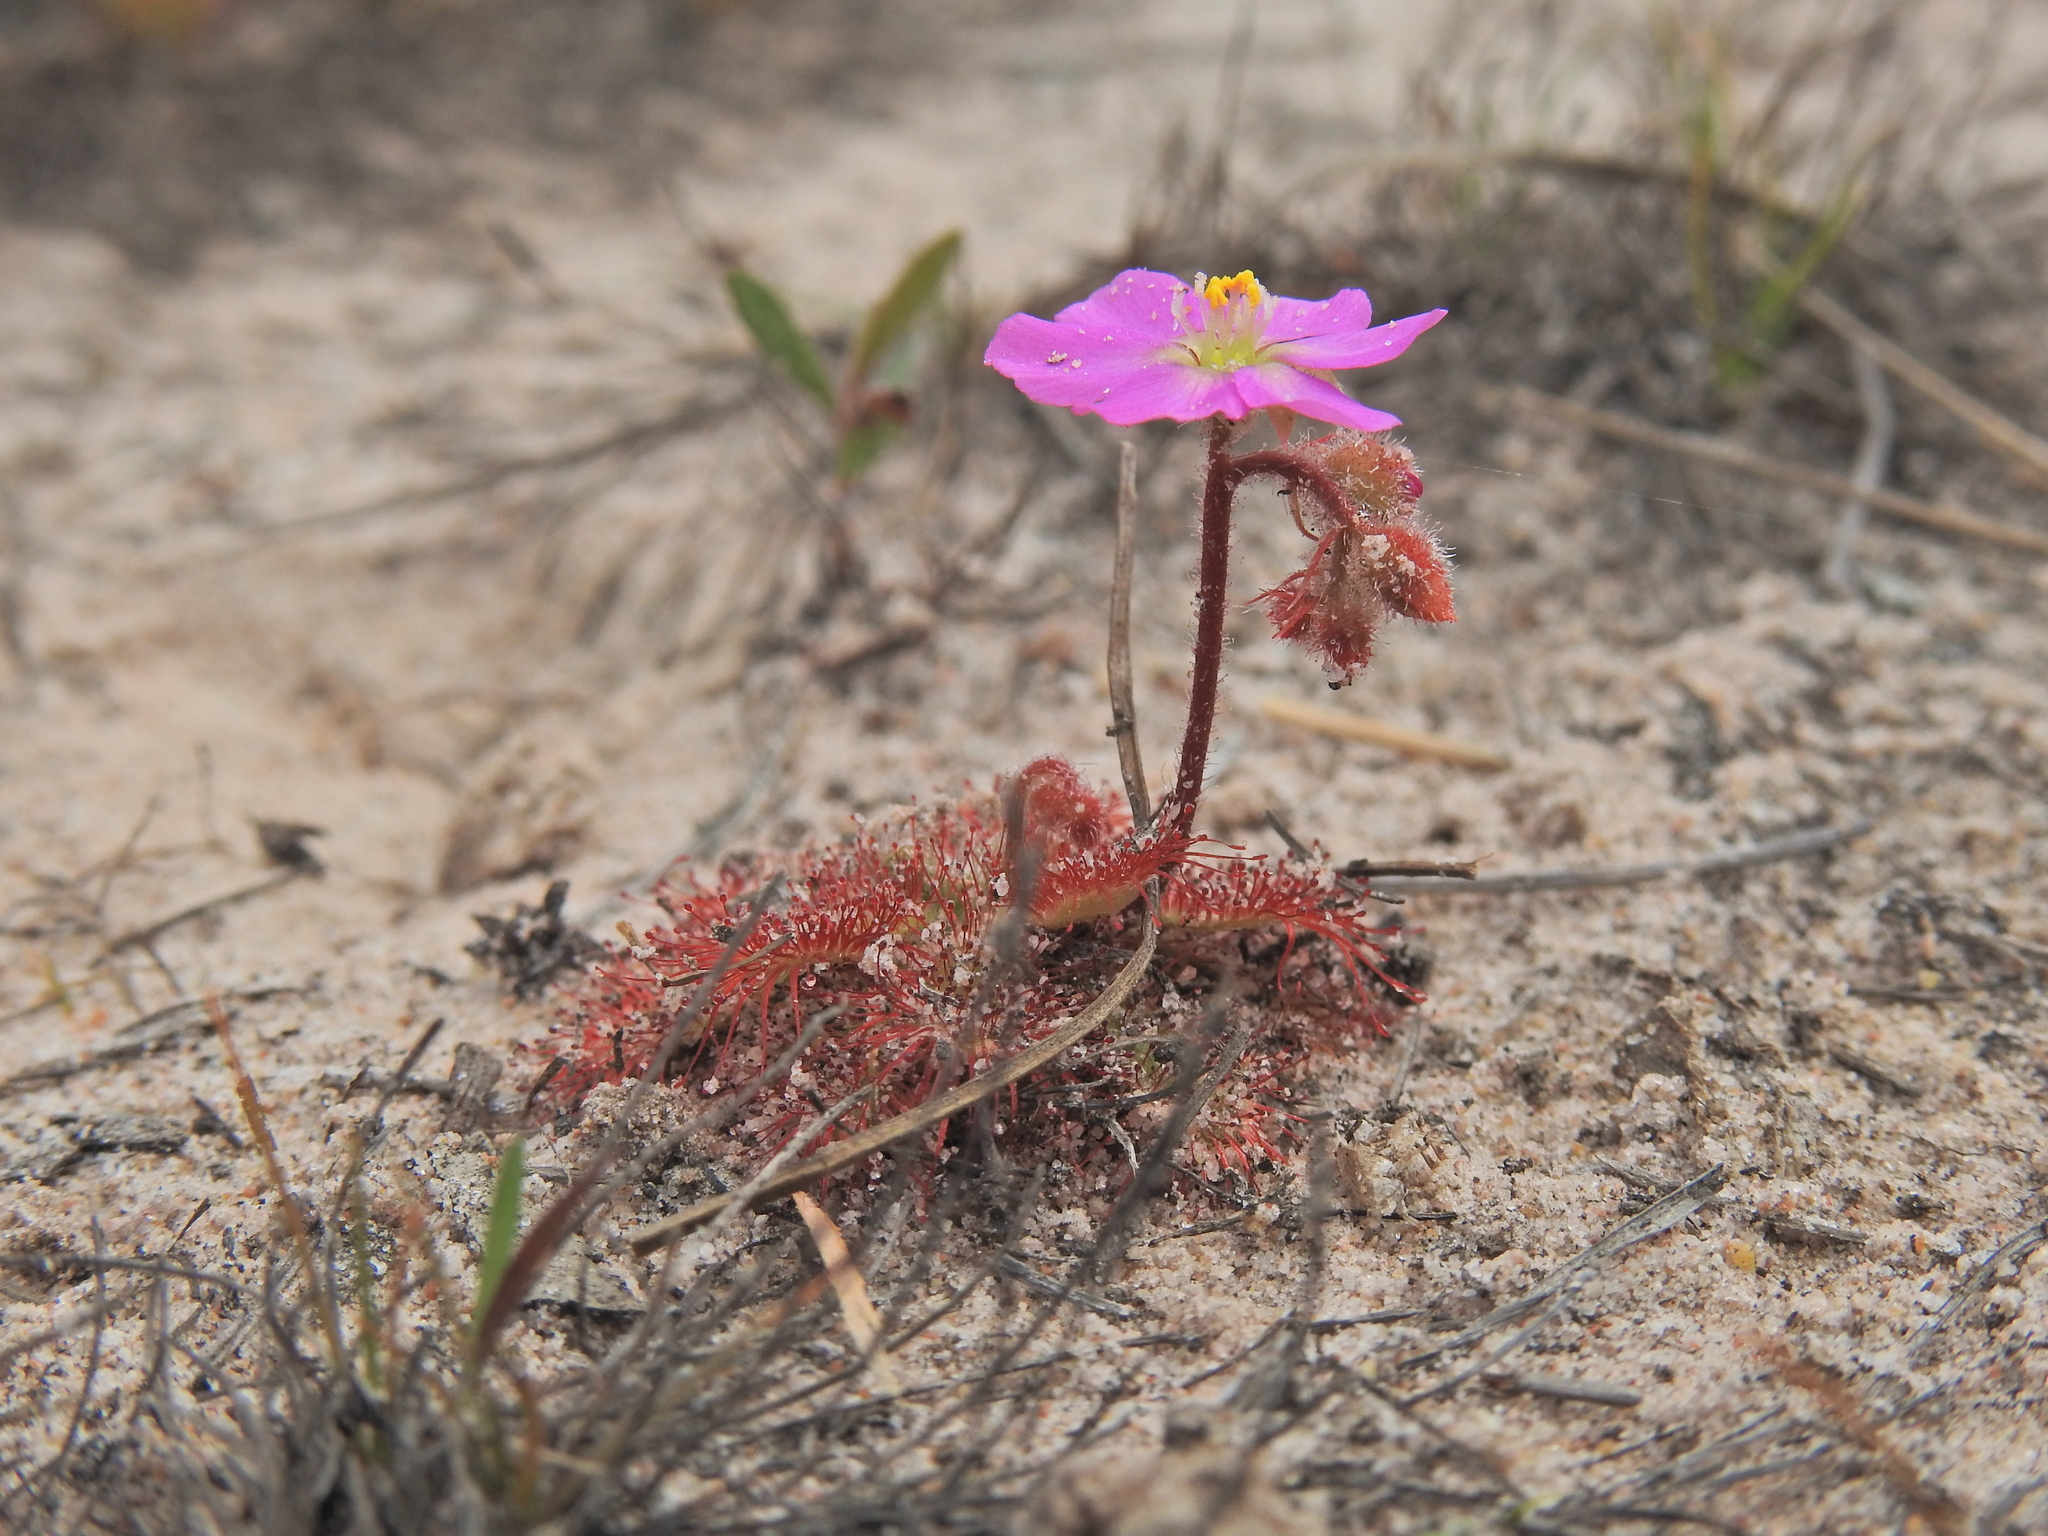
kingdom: Plantae
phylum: Tracheophyta
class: Magnoliopsida
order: Caryophyllales
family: Droseraceae
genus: Drosera
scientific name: Drosera spatulata
